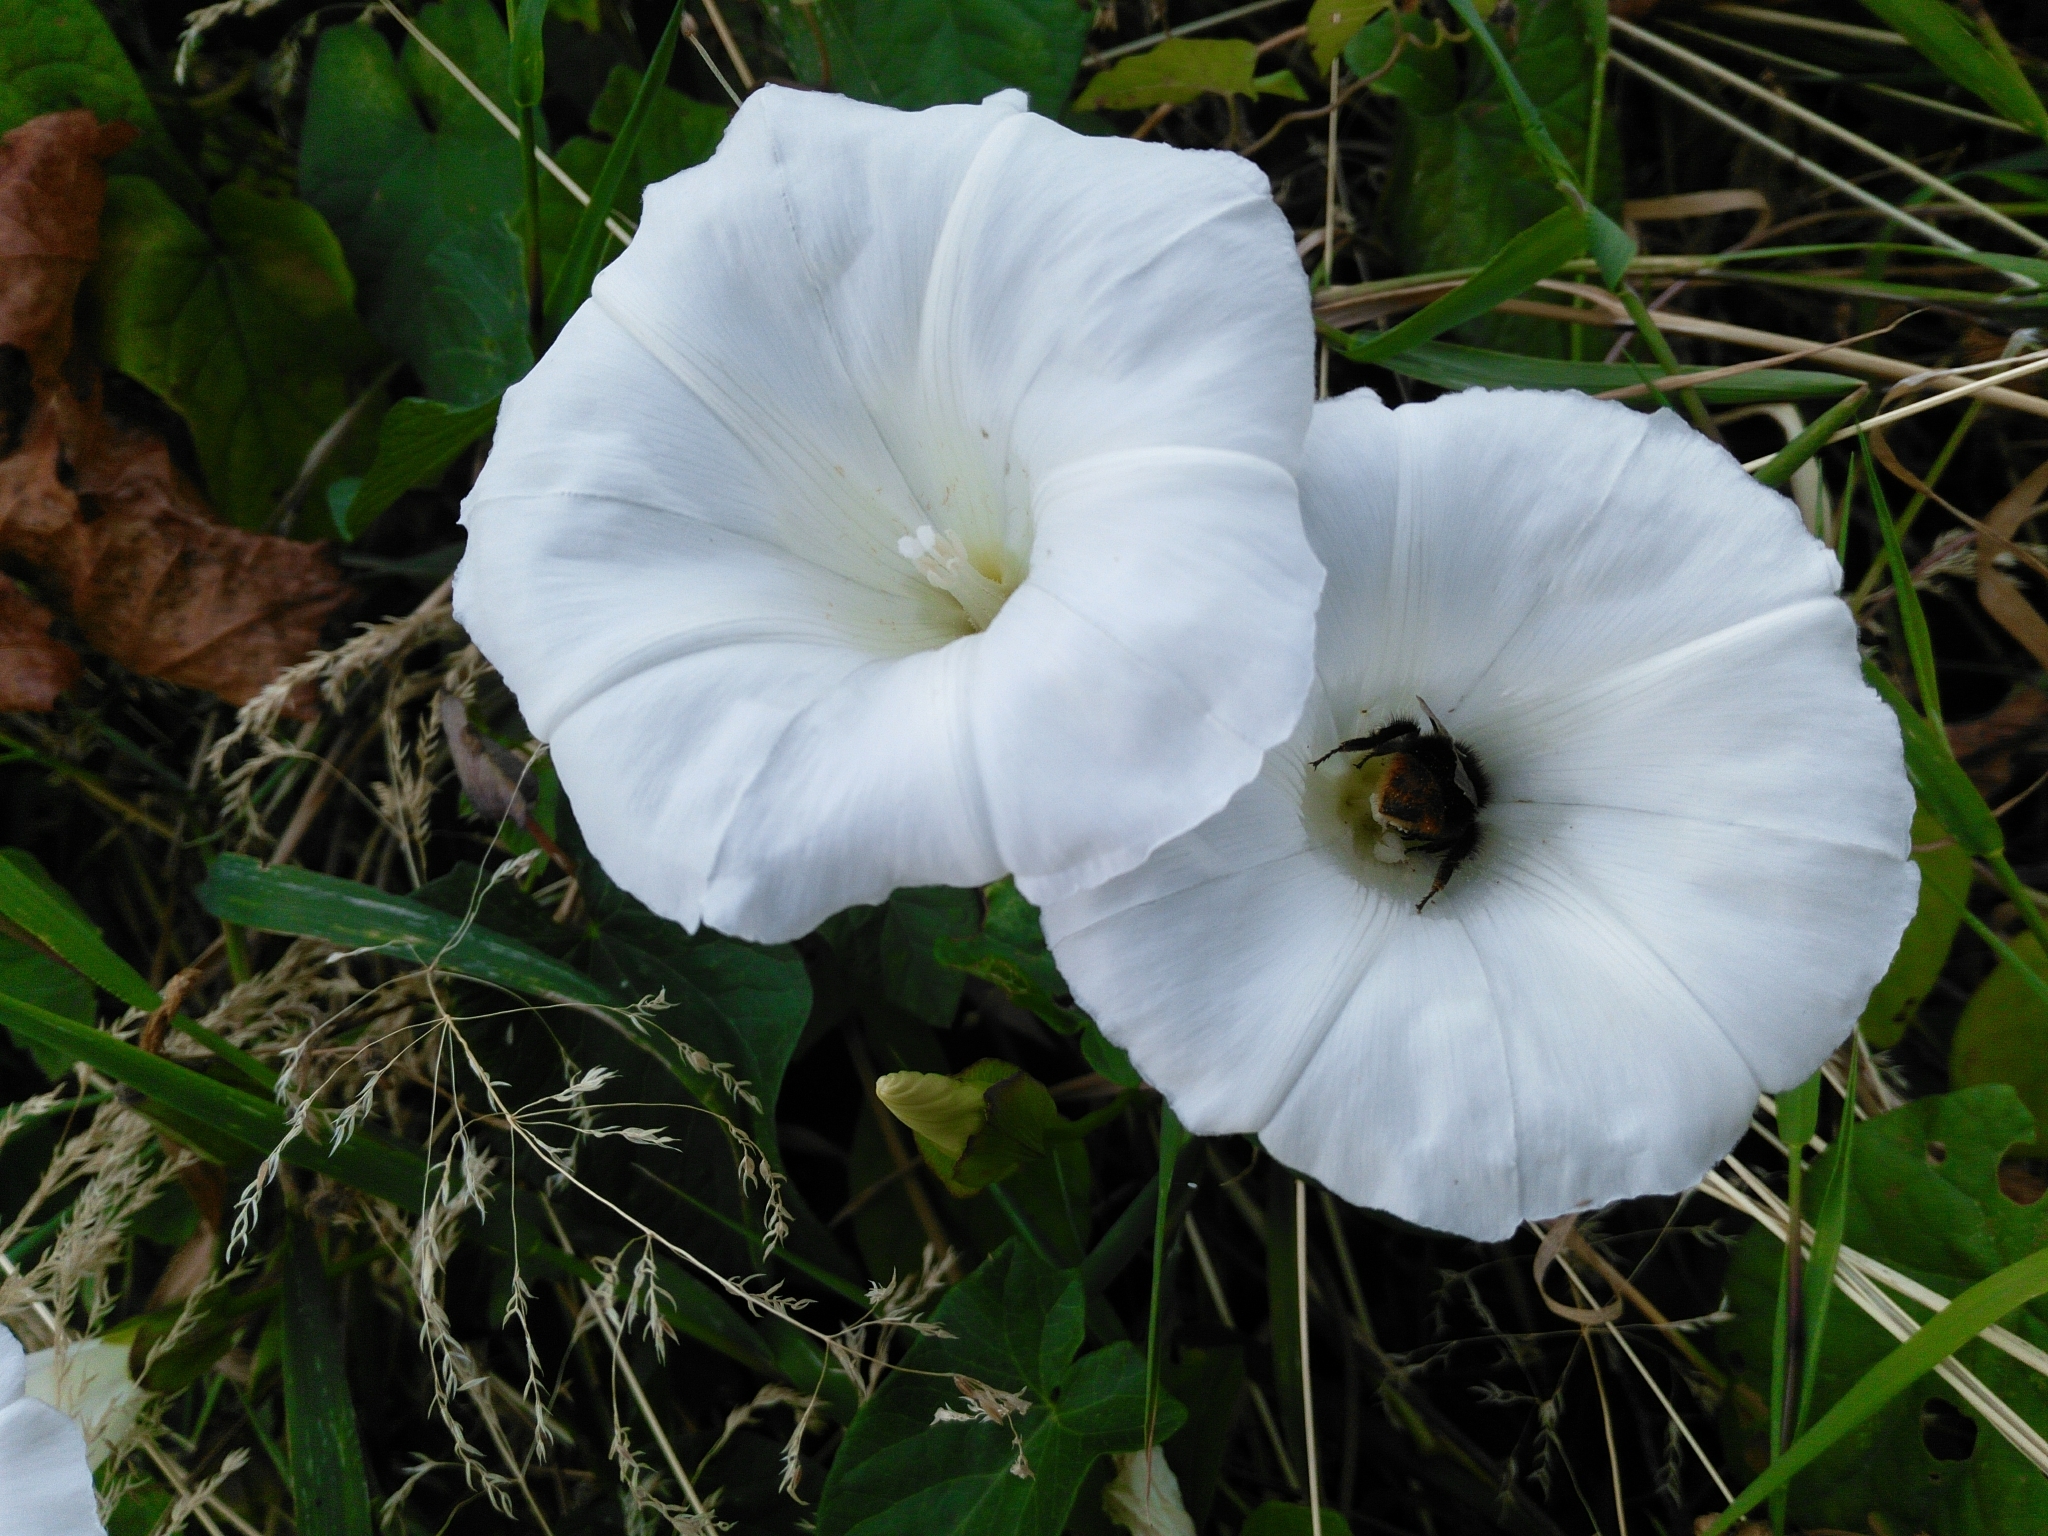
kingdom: Plantae
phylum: Tracheophyta
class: Magnoliopsida
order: Solanales
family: Convolvulaceae
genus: Calystegia
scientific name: Calystegia sepium
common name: Hedge bindweed
